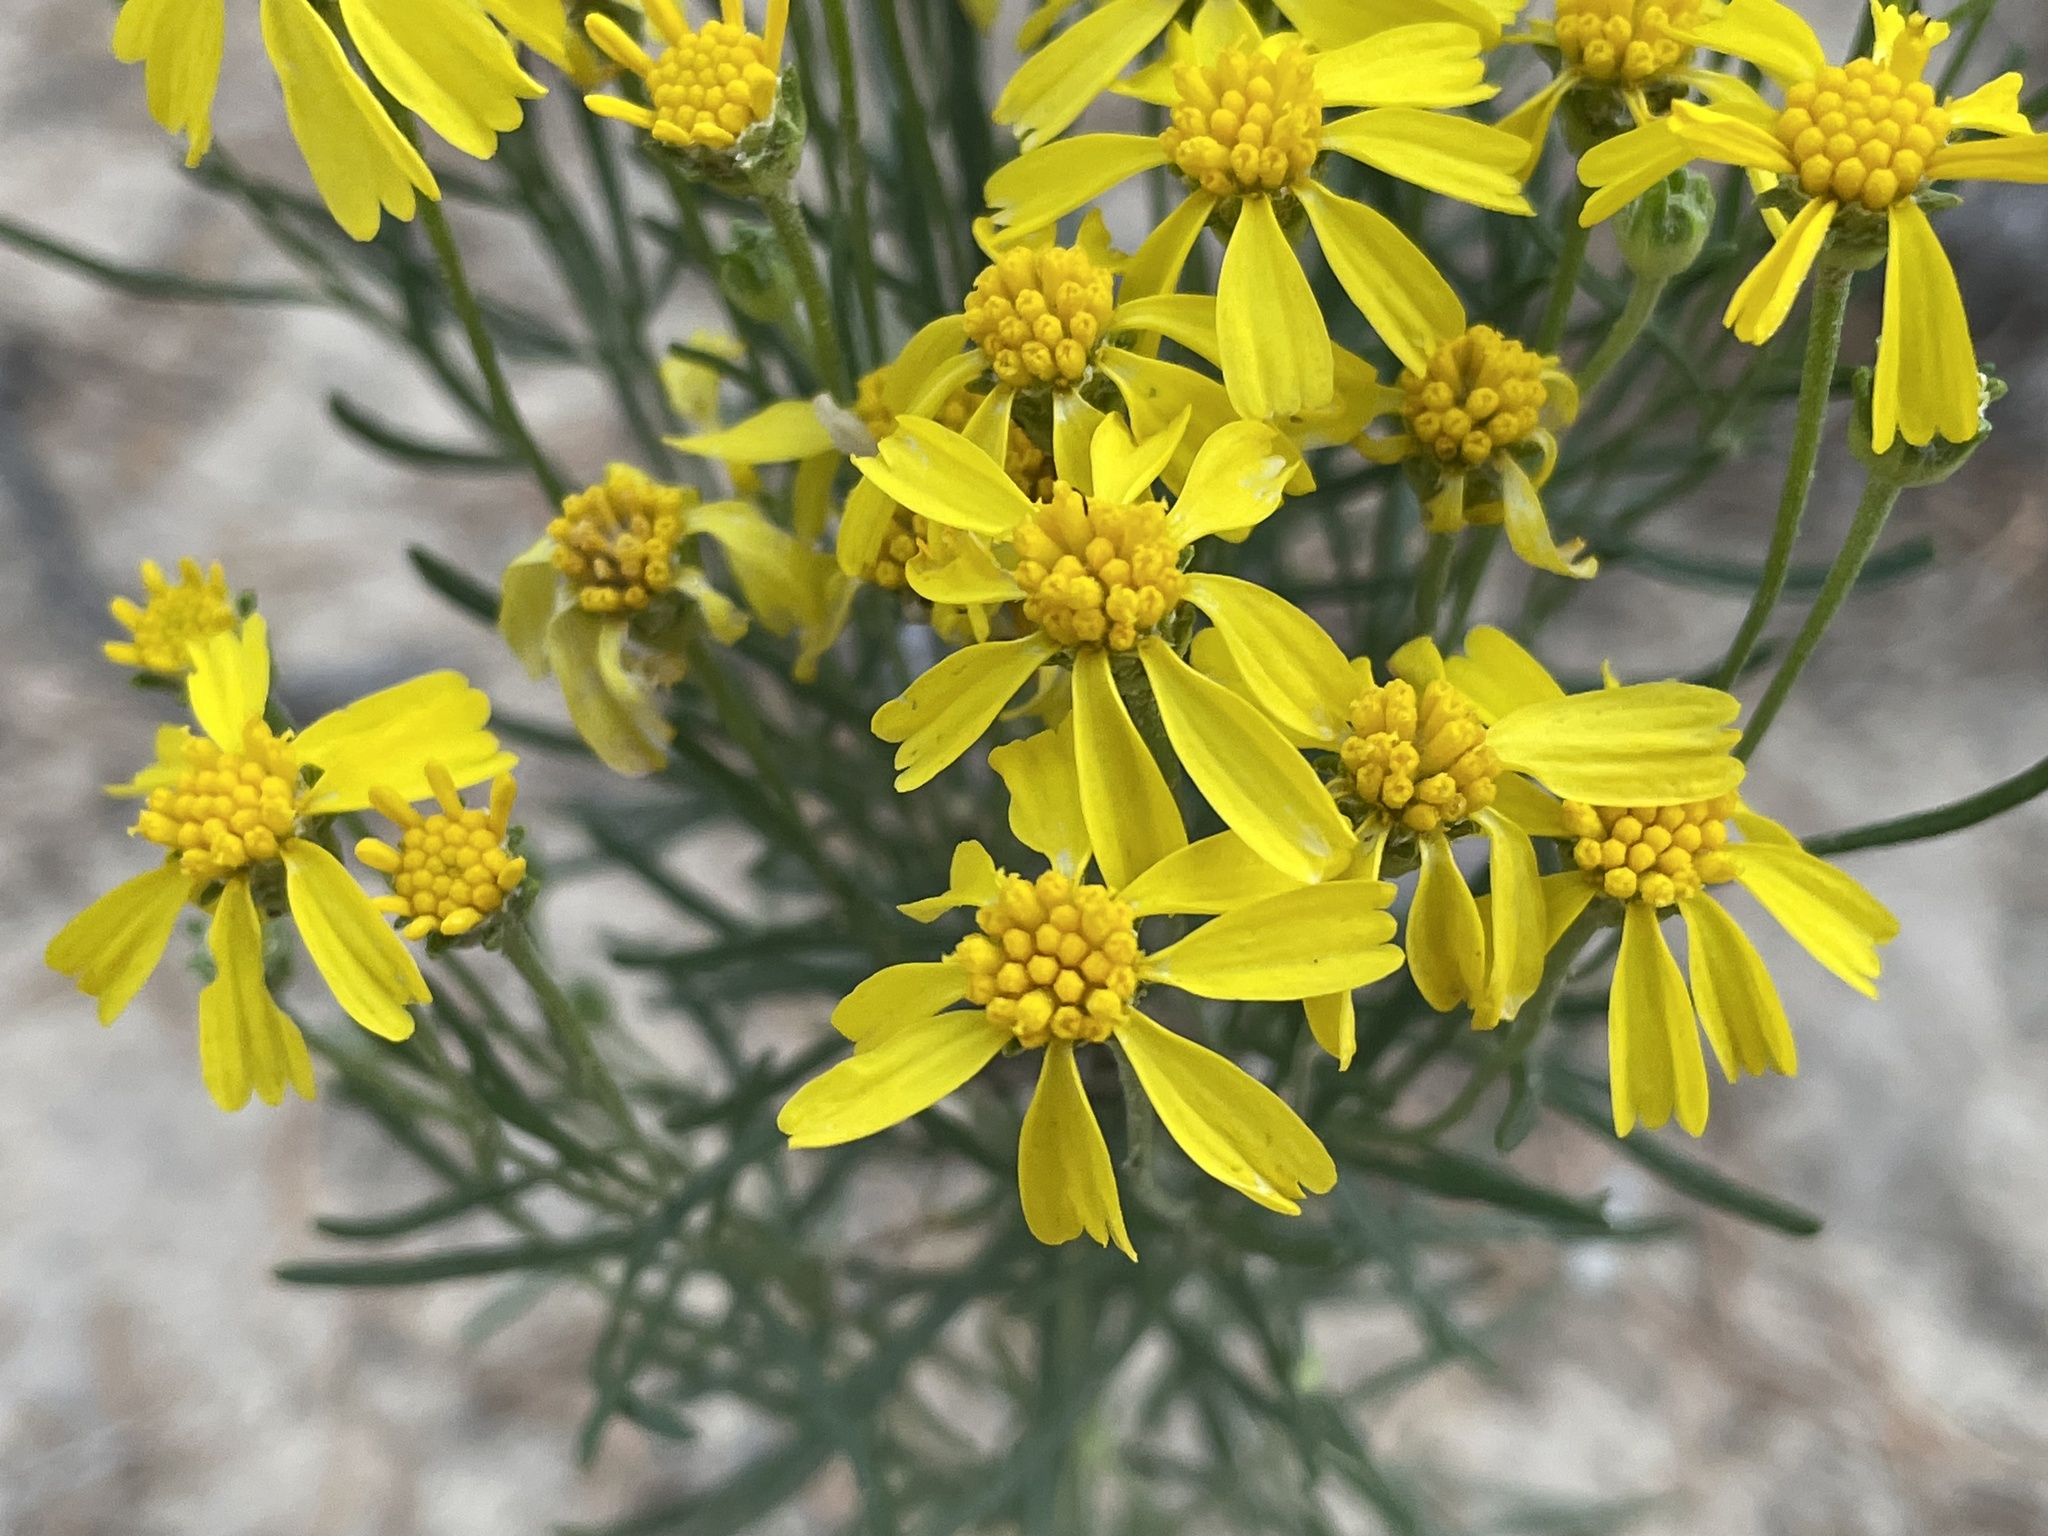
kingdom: Plantae
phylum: Tracheophyta
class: Magnoliopsida
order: Asterales
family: Asteraceae
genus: Hymenoxys
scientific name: Hymenoxys richardsonii
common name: Pingue rubberweed
